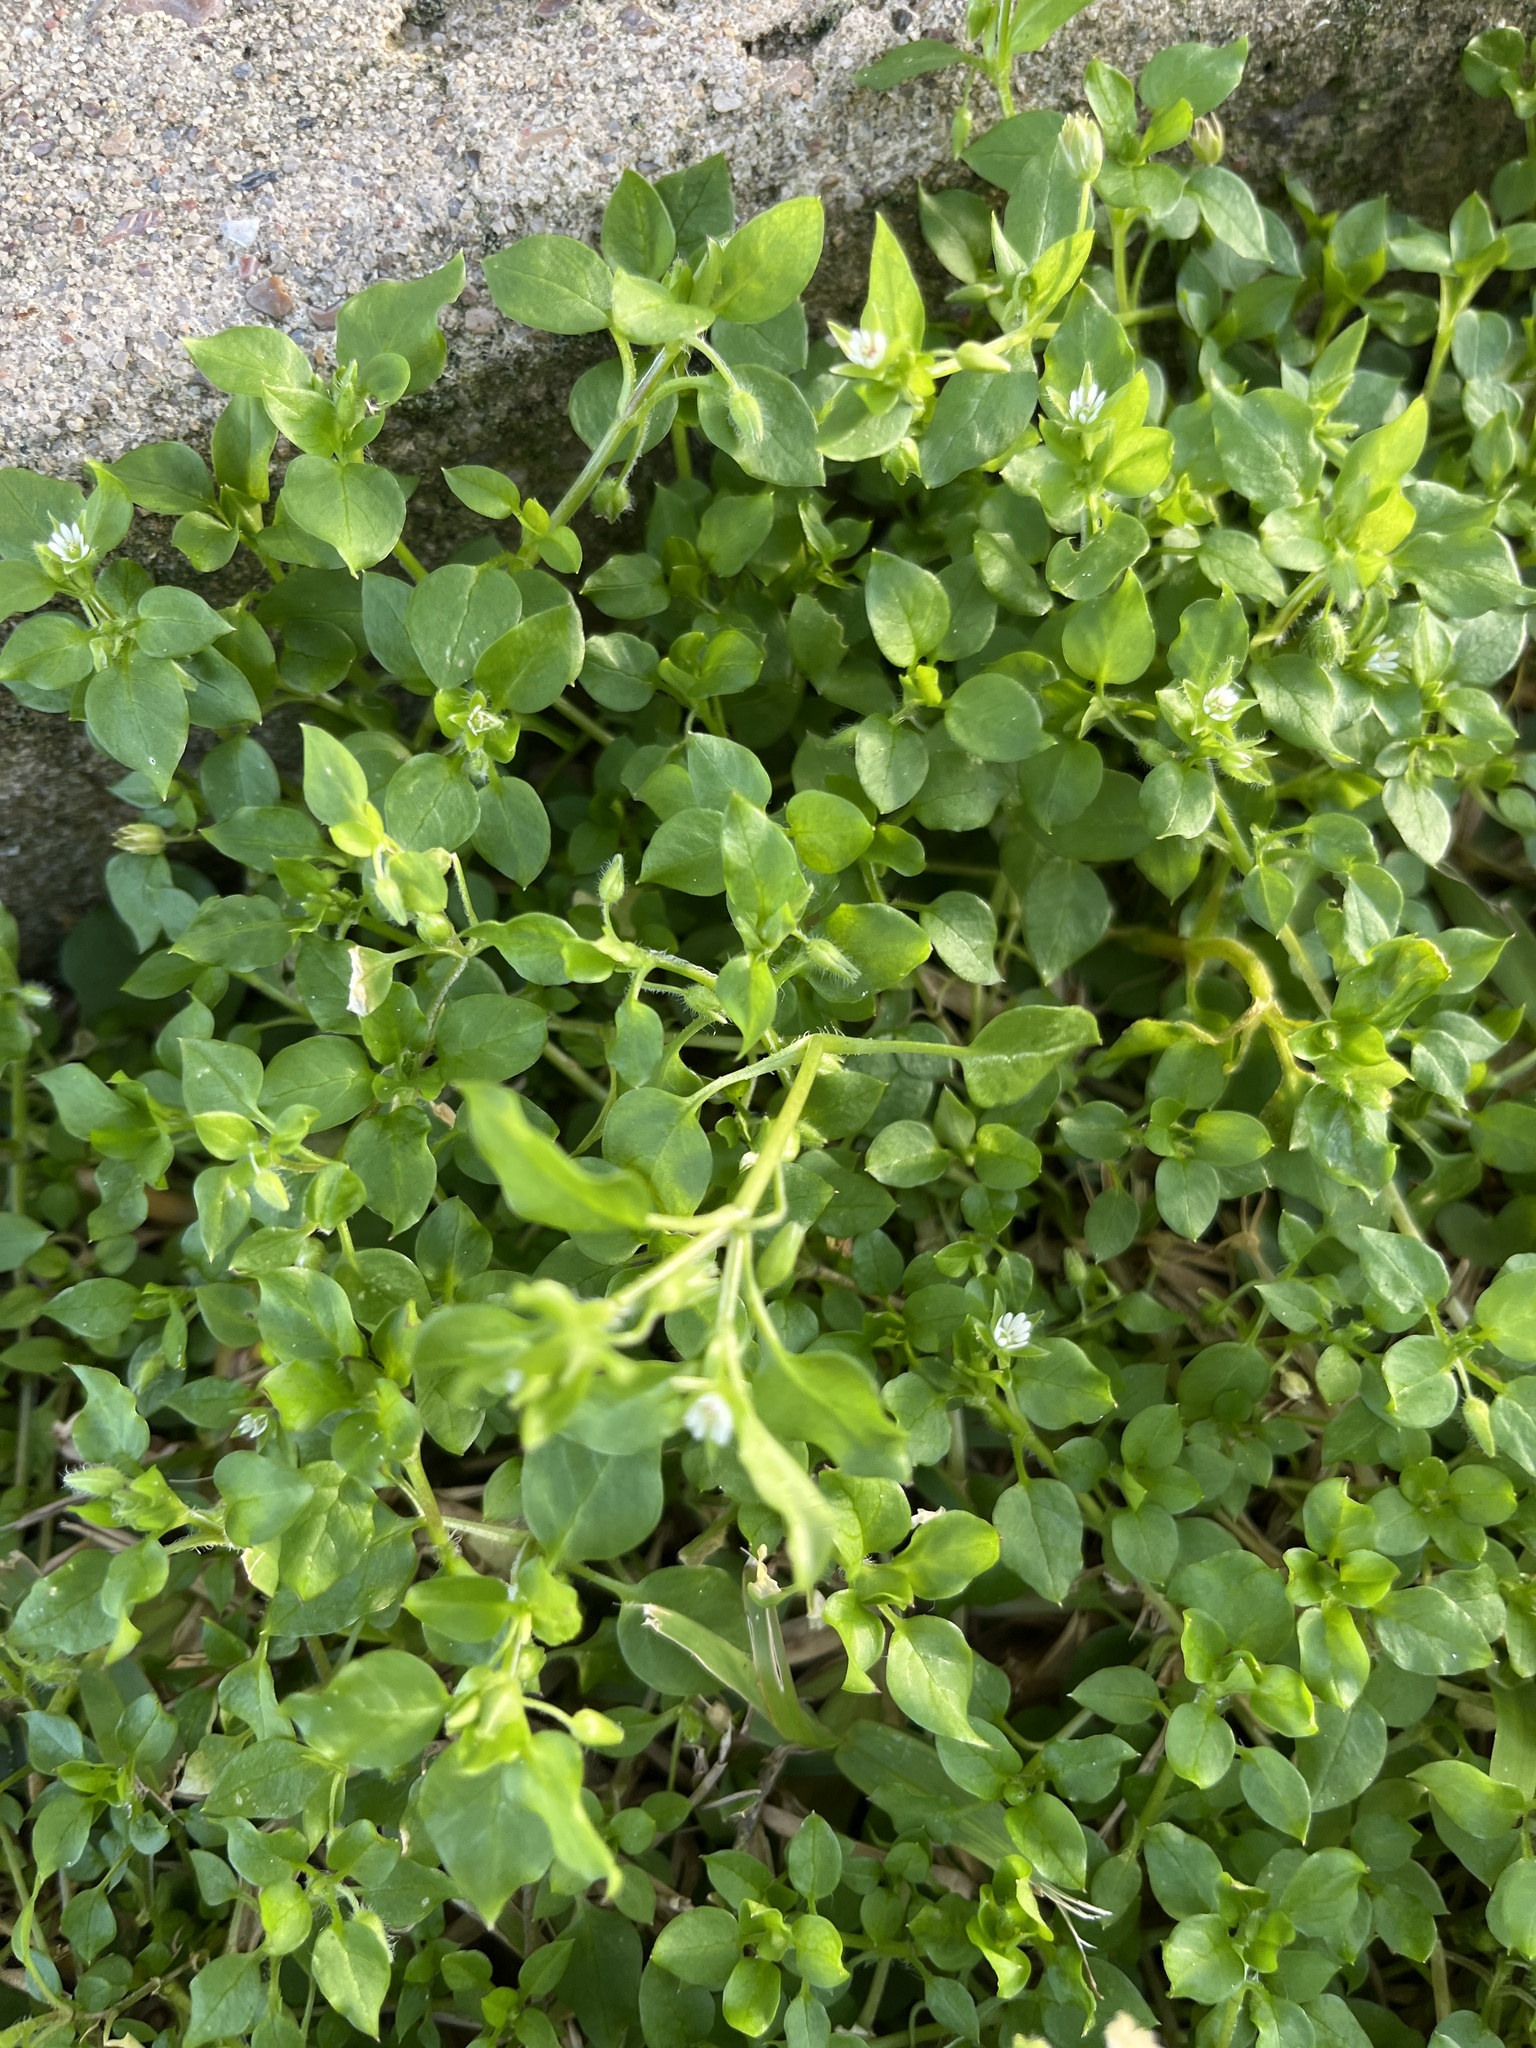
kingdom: Plantae
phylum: Tracheophyta
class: Magnoliopsida
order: Caryophyllales
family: Caryophyllaceae
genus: Stellaria
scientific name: Stellaria media
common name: Common chickweed
